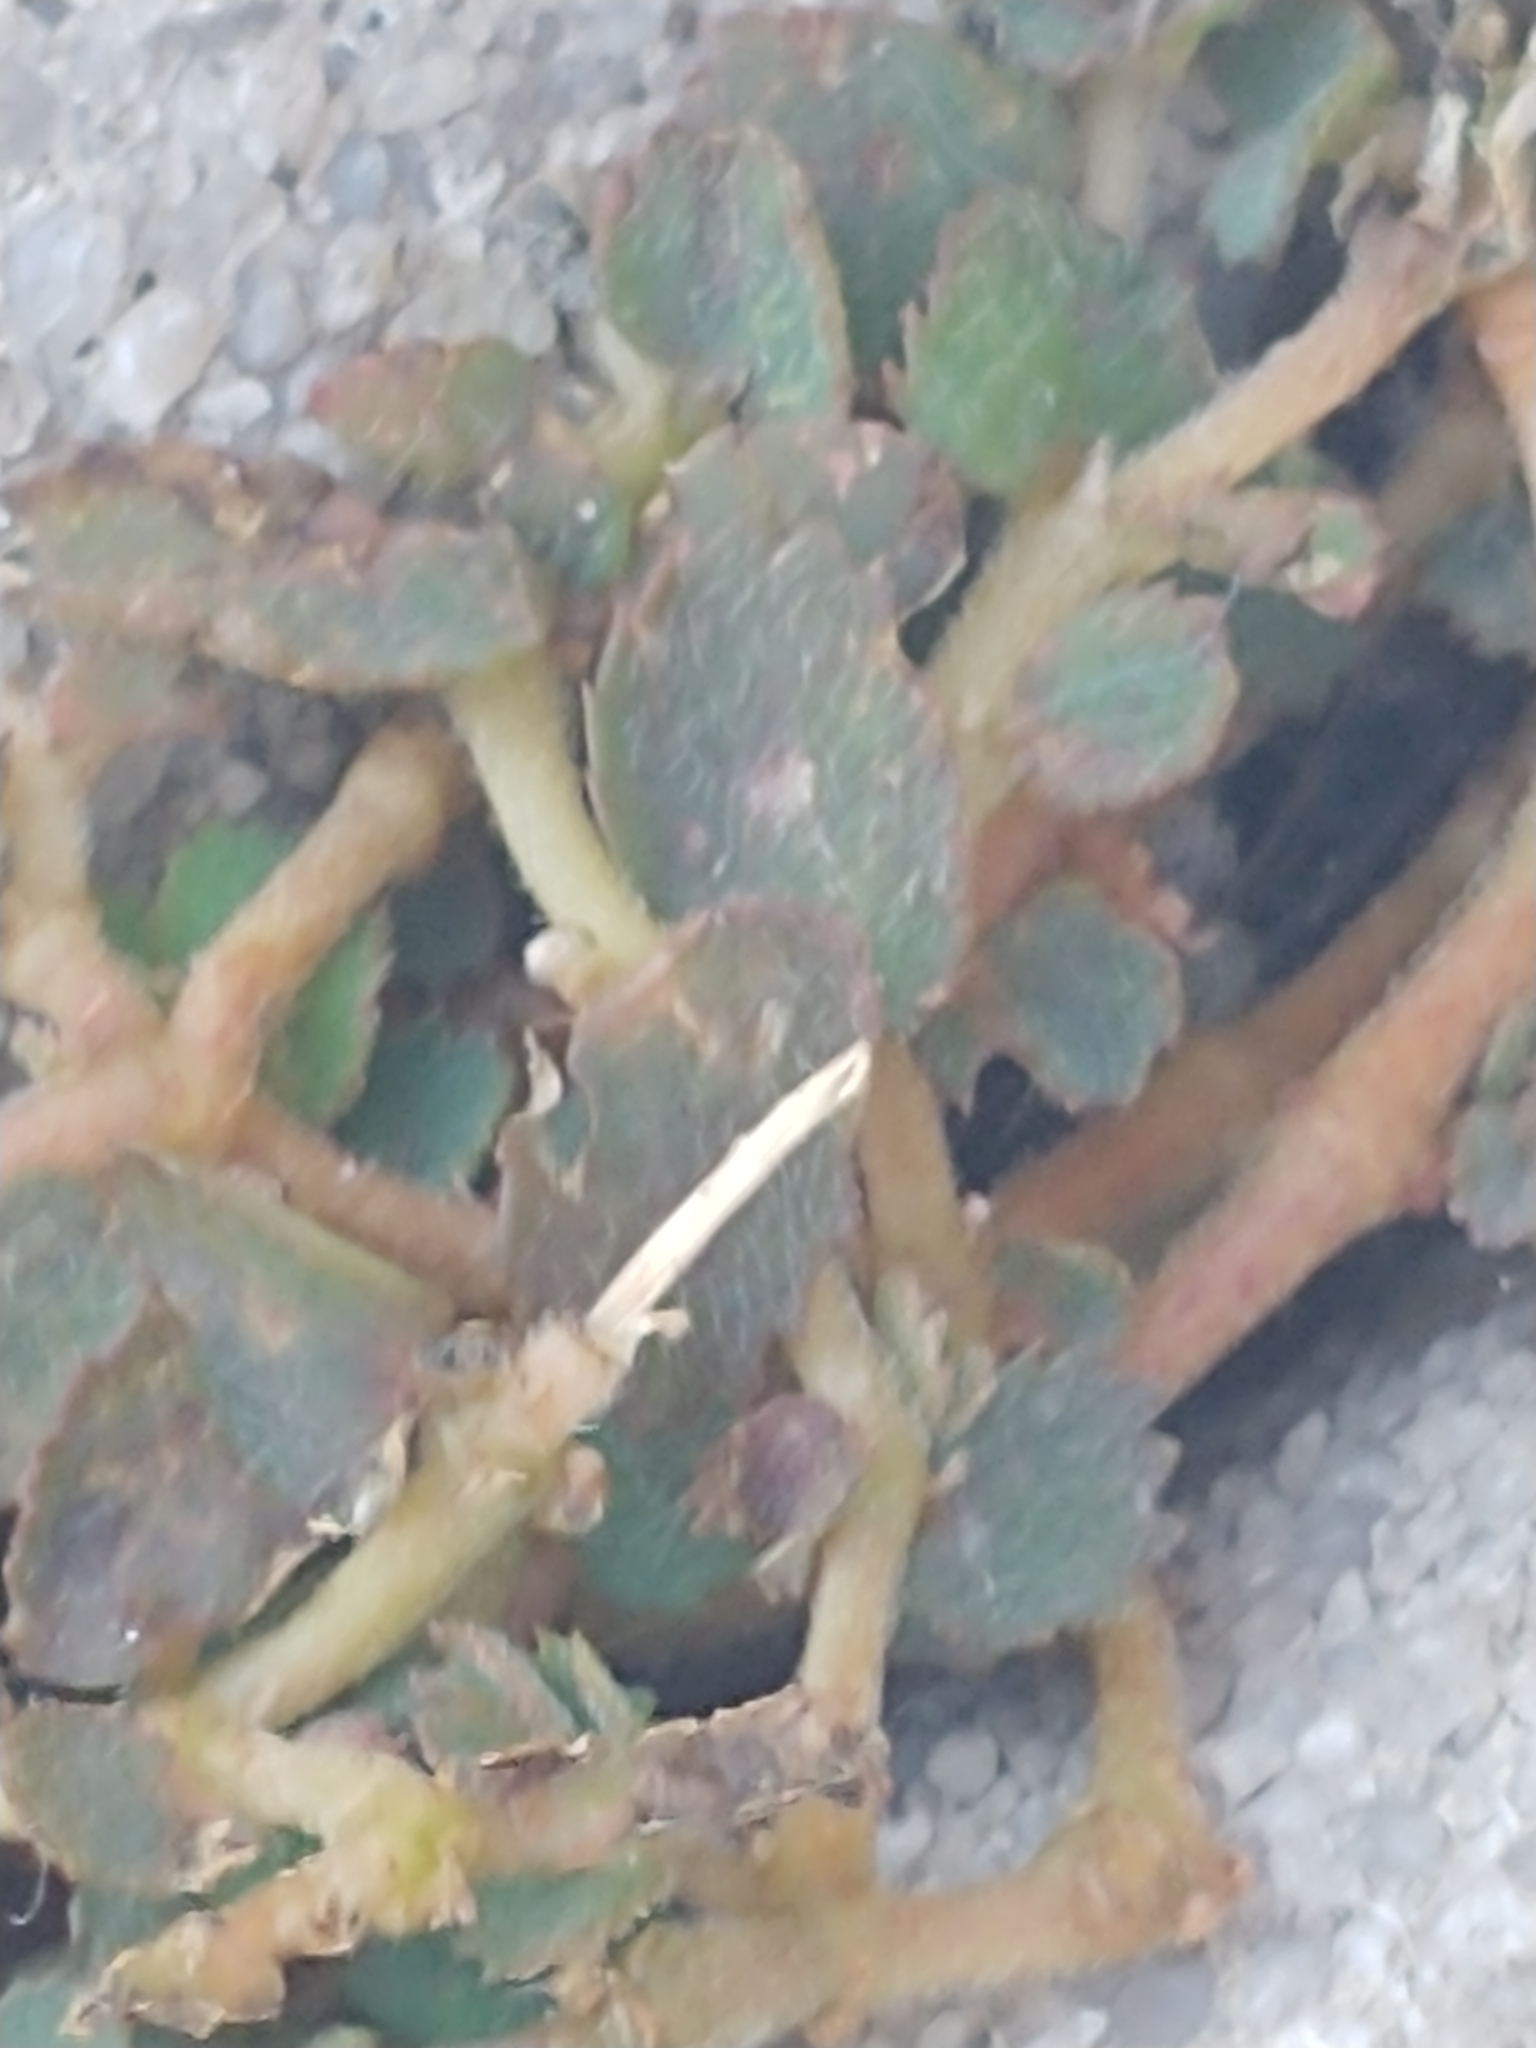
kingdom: Plantae
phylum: Tracheophyta
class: Magnoliopsida
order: Malpighiales
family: Euphorbiaceae
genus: Euphorbia
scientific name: Euphorbia thymifolia
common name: Gulf sandmat
